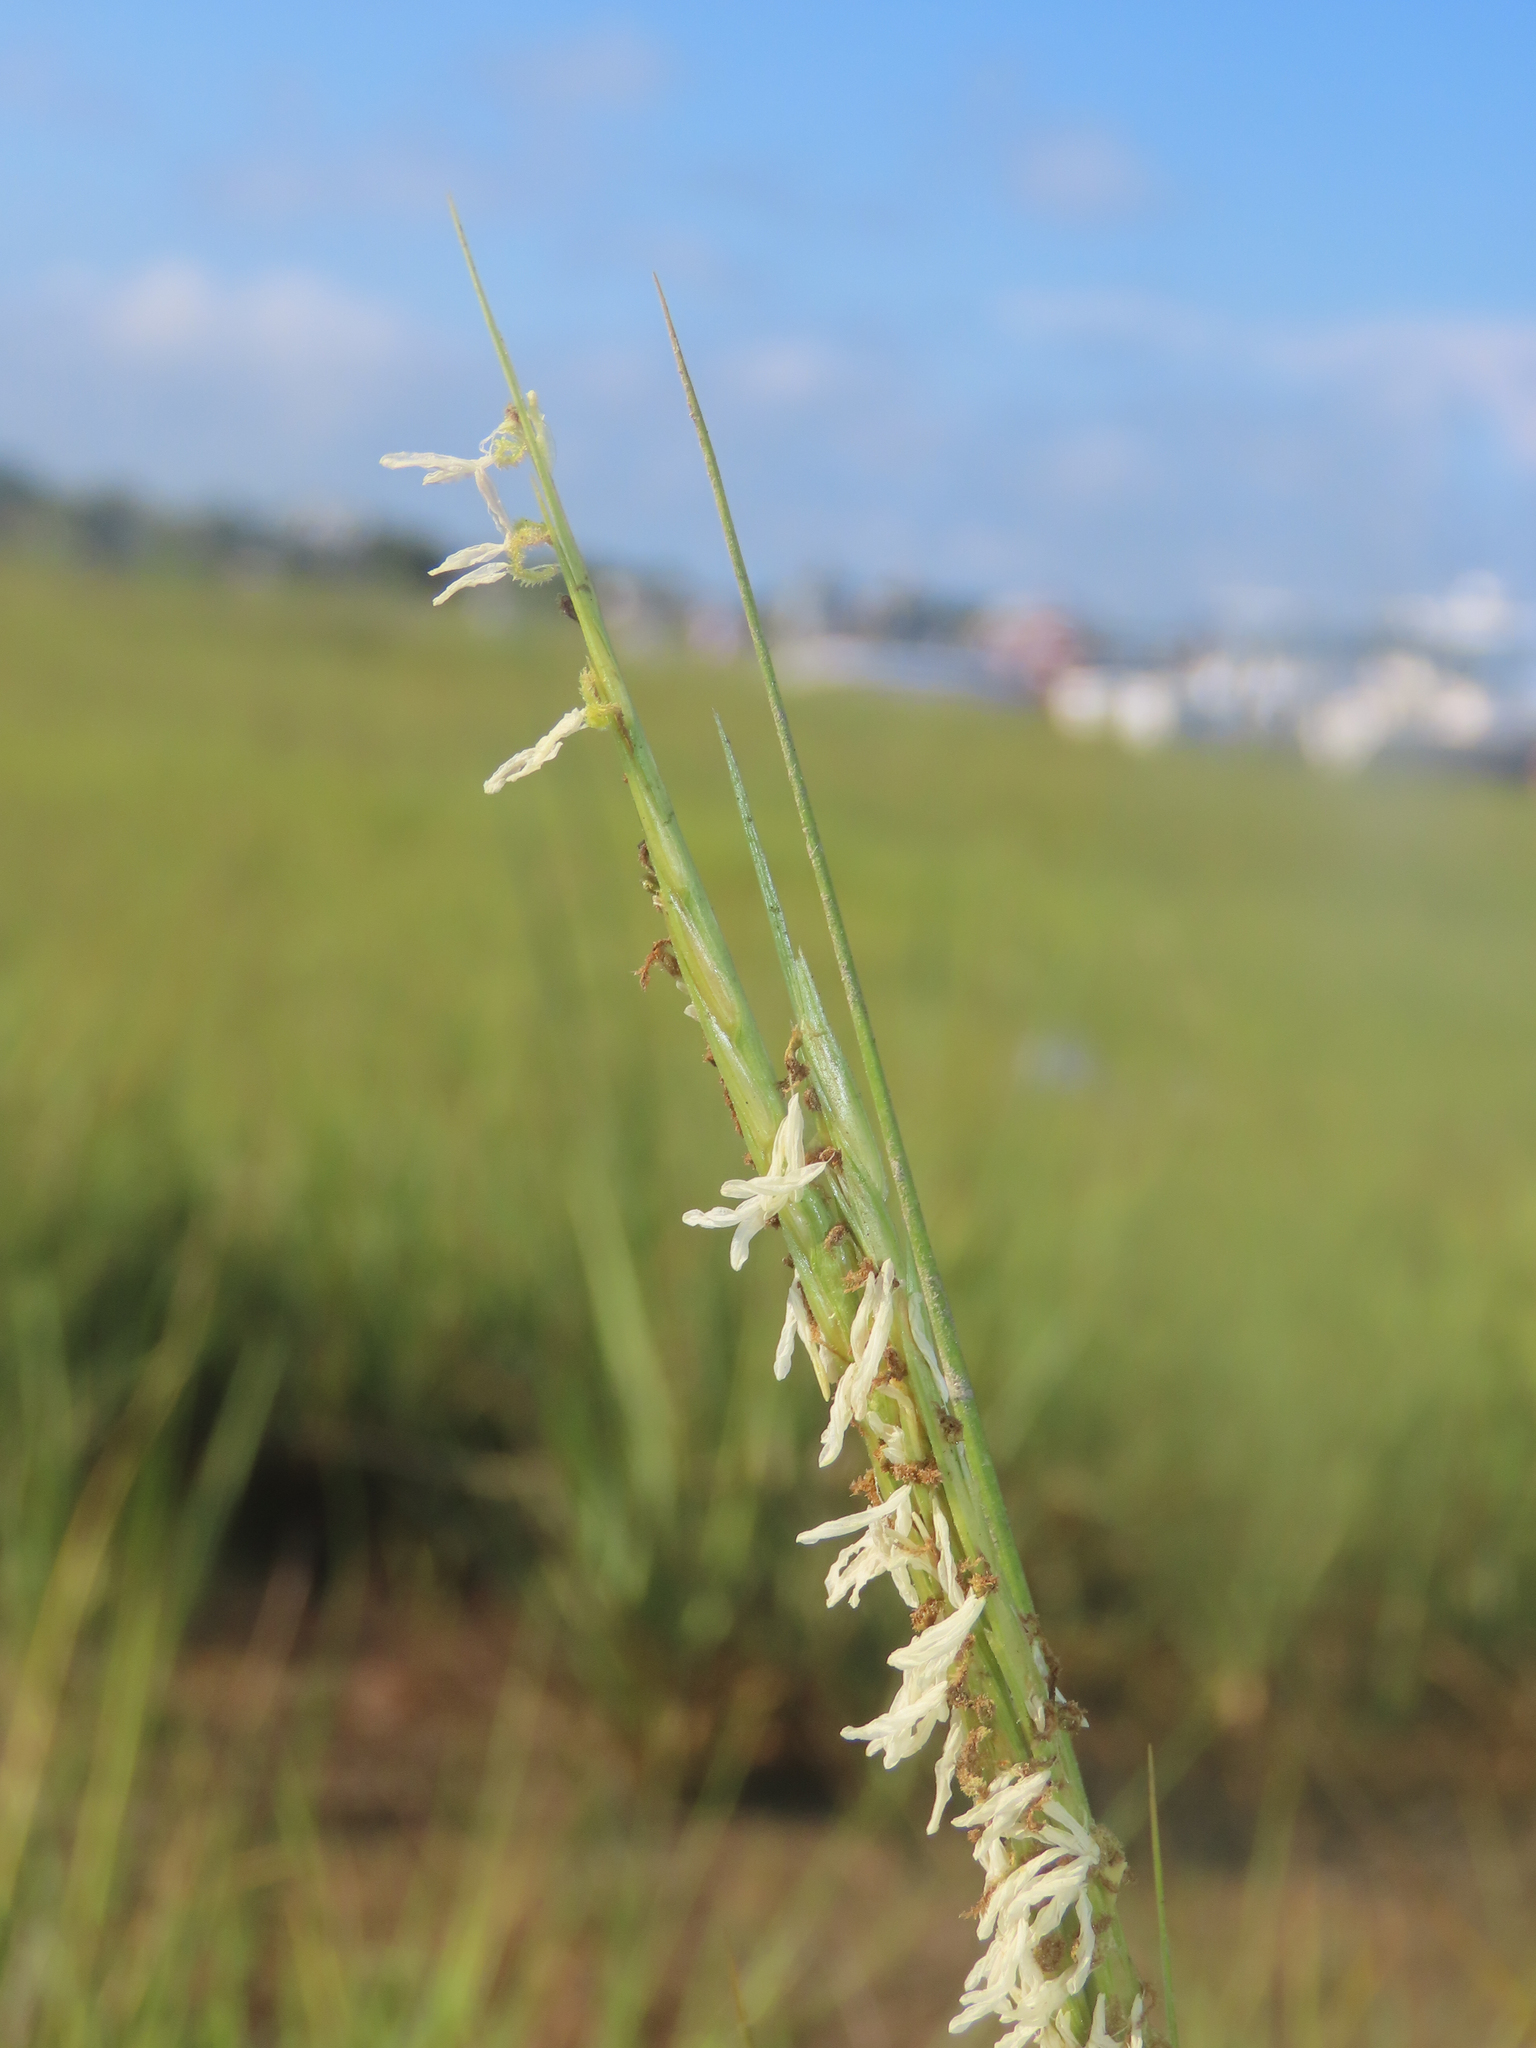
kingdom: Plantae
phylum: Tracheophyta
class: Liliopsida
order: Poales
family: Poaceae
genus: Sporobolus
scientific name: Sporobolus alterniflorus
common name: Atlantic cordgrass
